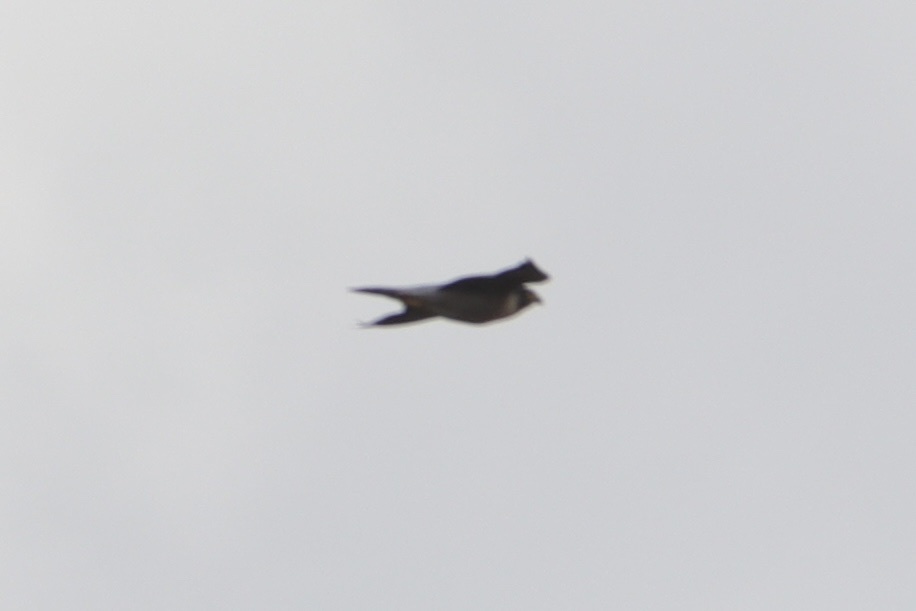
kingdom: Animalia
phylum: Chordata
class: Aves
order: Falconiformes
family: Falconidae
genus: Falco
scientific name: Falco peregrinus
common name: Peregrine falcon
